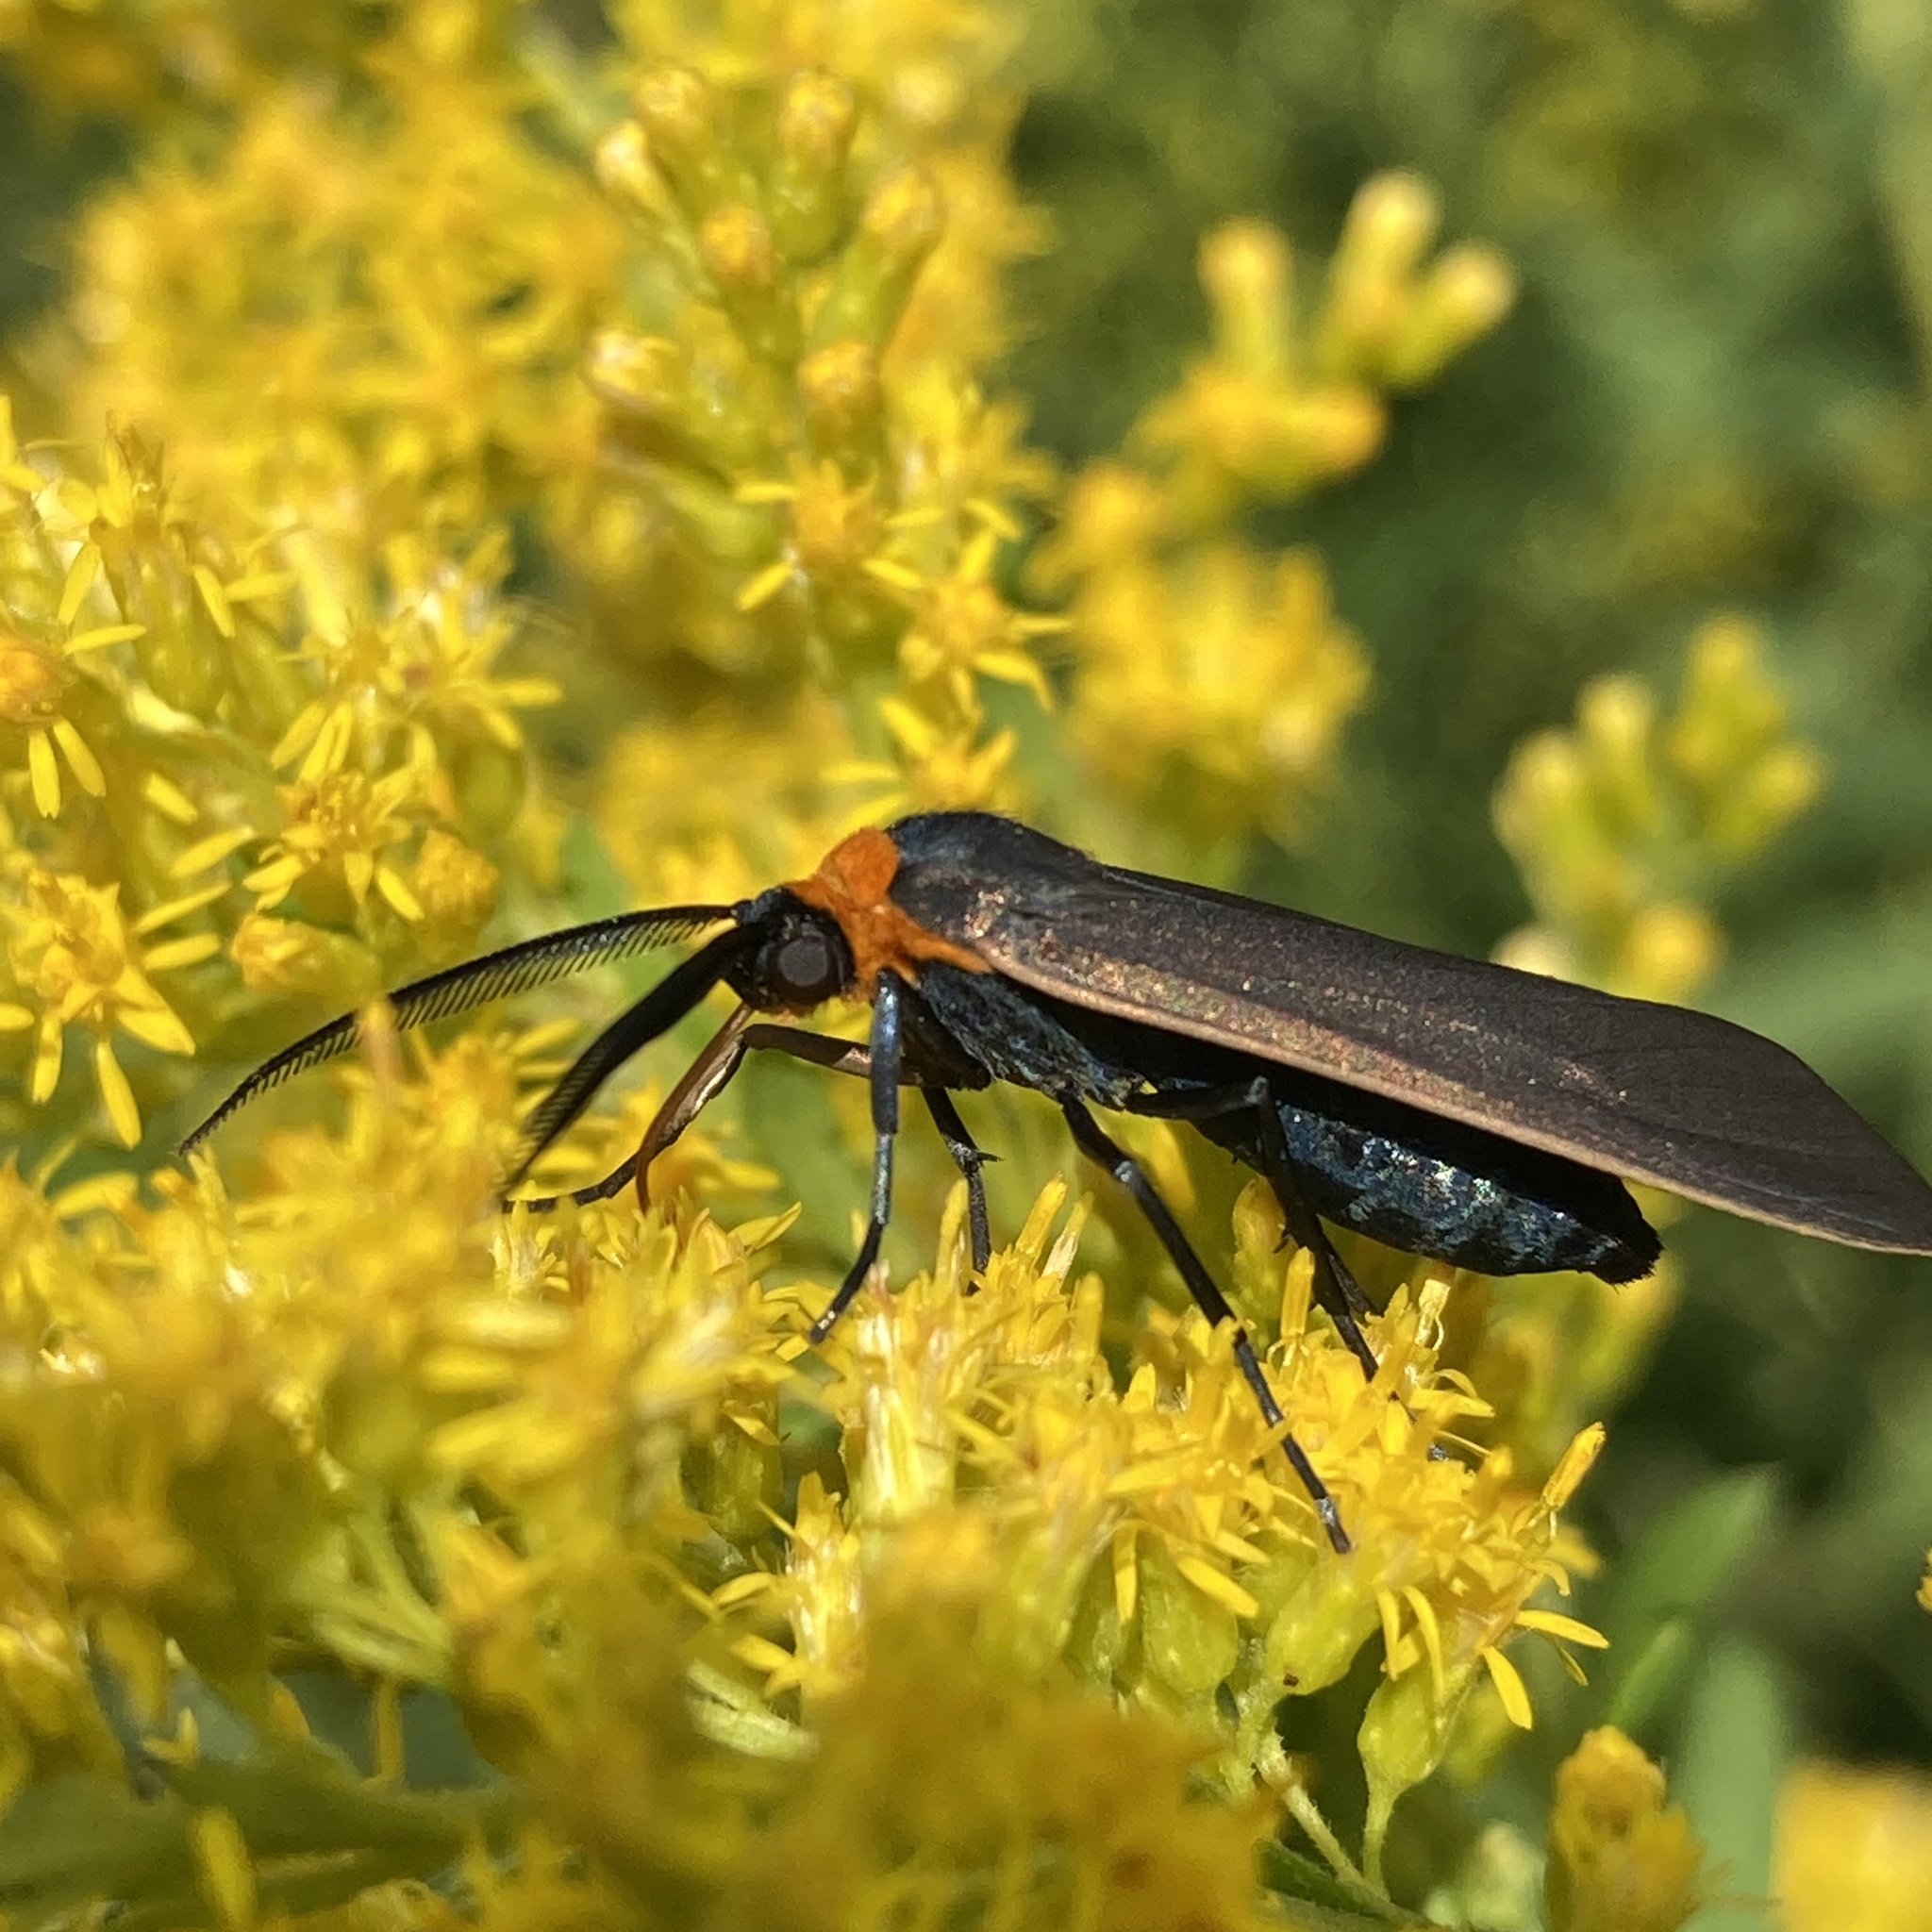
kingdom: Animalia
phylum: Arthropoda
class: Insecta
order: Lepidoptera
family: Erebidae
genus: Cisseps
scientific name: Cisseps fulvicollis
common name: Yellow-collared scape moth
